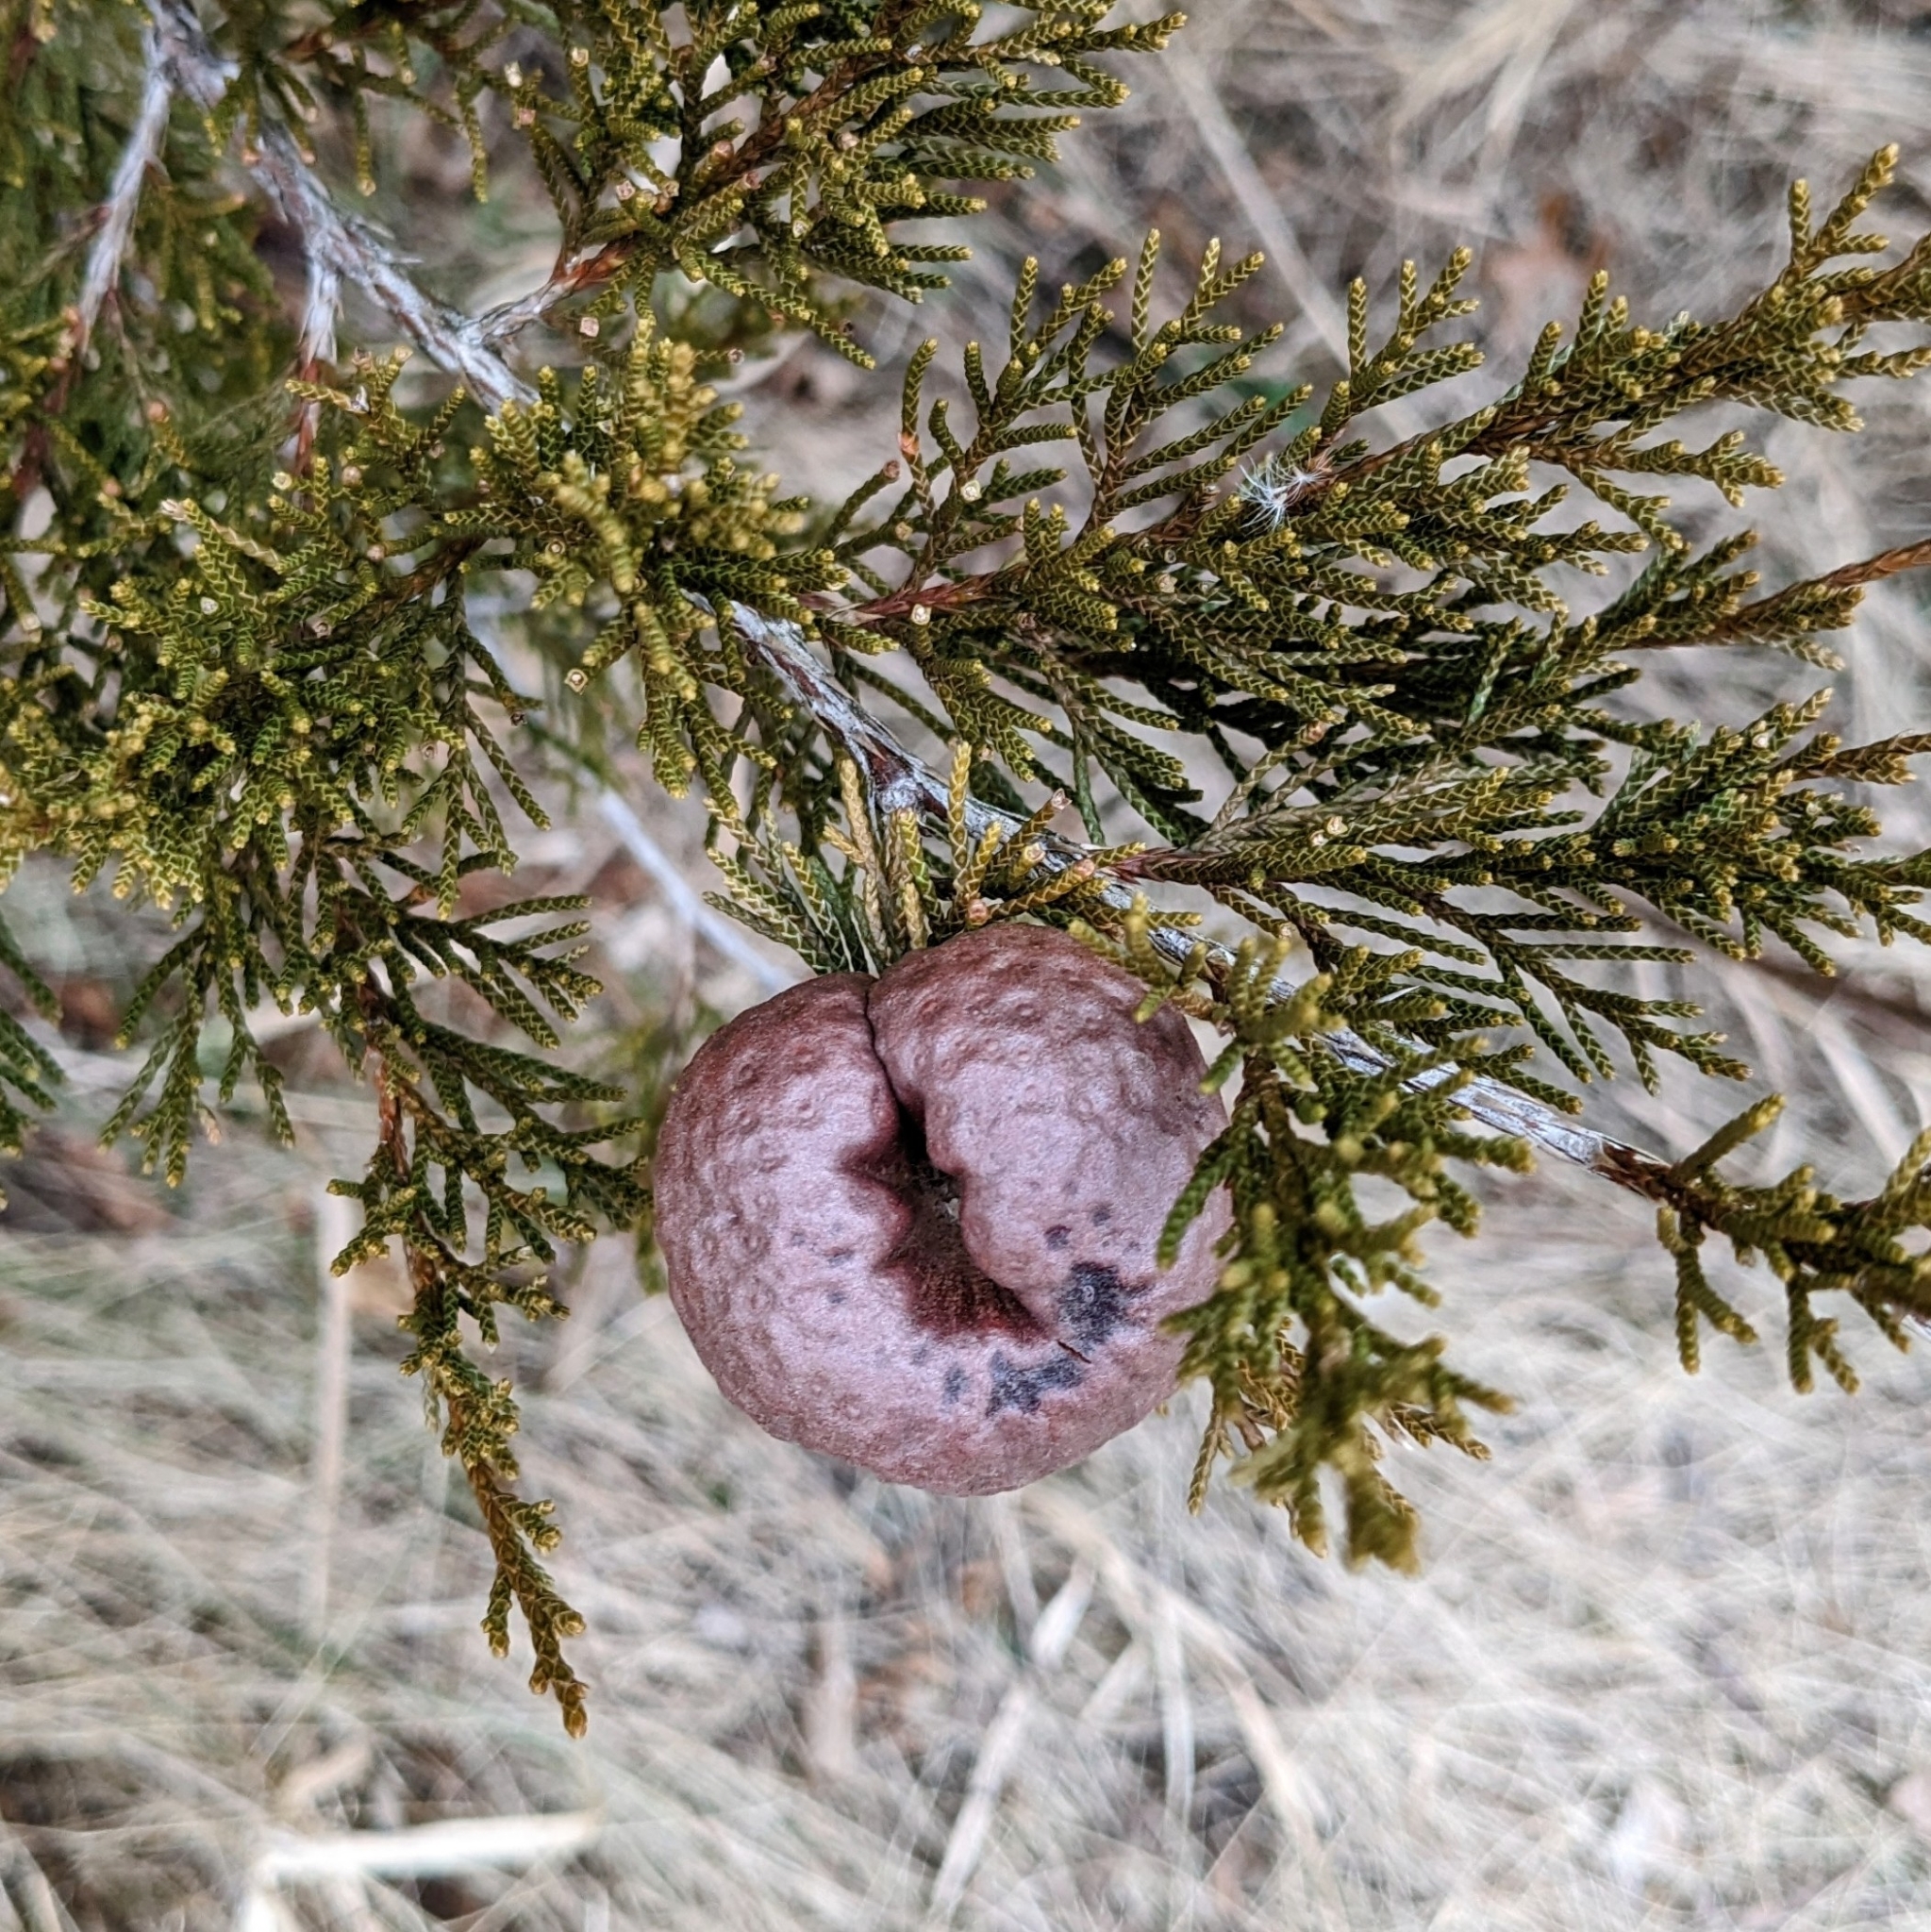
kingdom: Fungi
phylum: Basidiomycota
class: Pucciniomycetes
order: Pucciniales
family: Gymnosporangiaceae
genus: Gymnosporangium
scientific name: Gymnosporangium juniperi-virginianae
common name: Juniper-apple rust
